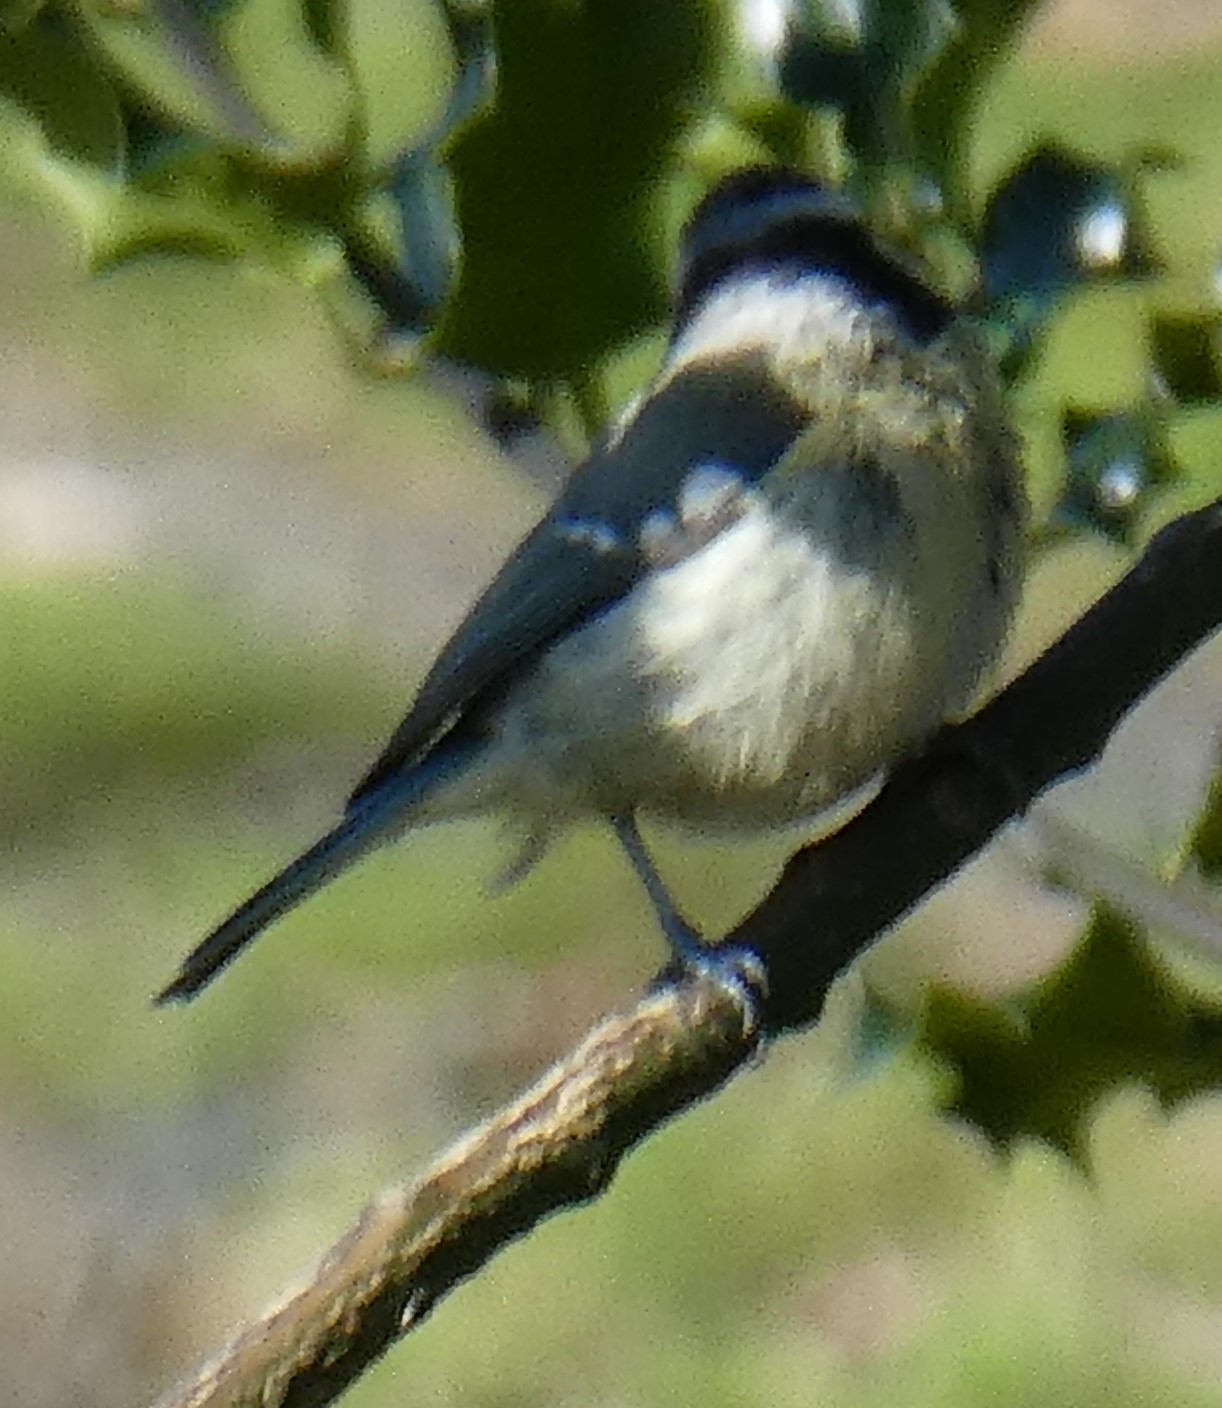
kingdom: Animalia
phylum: Chordata
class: Aves
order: Passeriformes
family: Paridae
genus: Cyanistes
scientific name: Cyanistes caeruleus
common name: Eurasian blue tit
